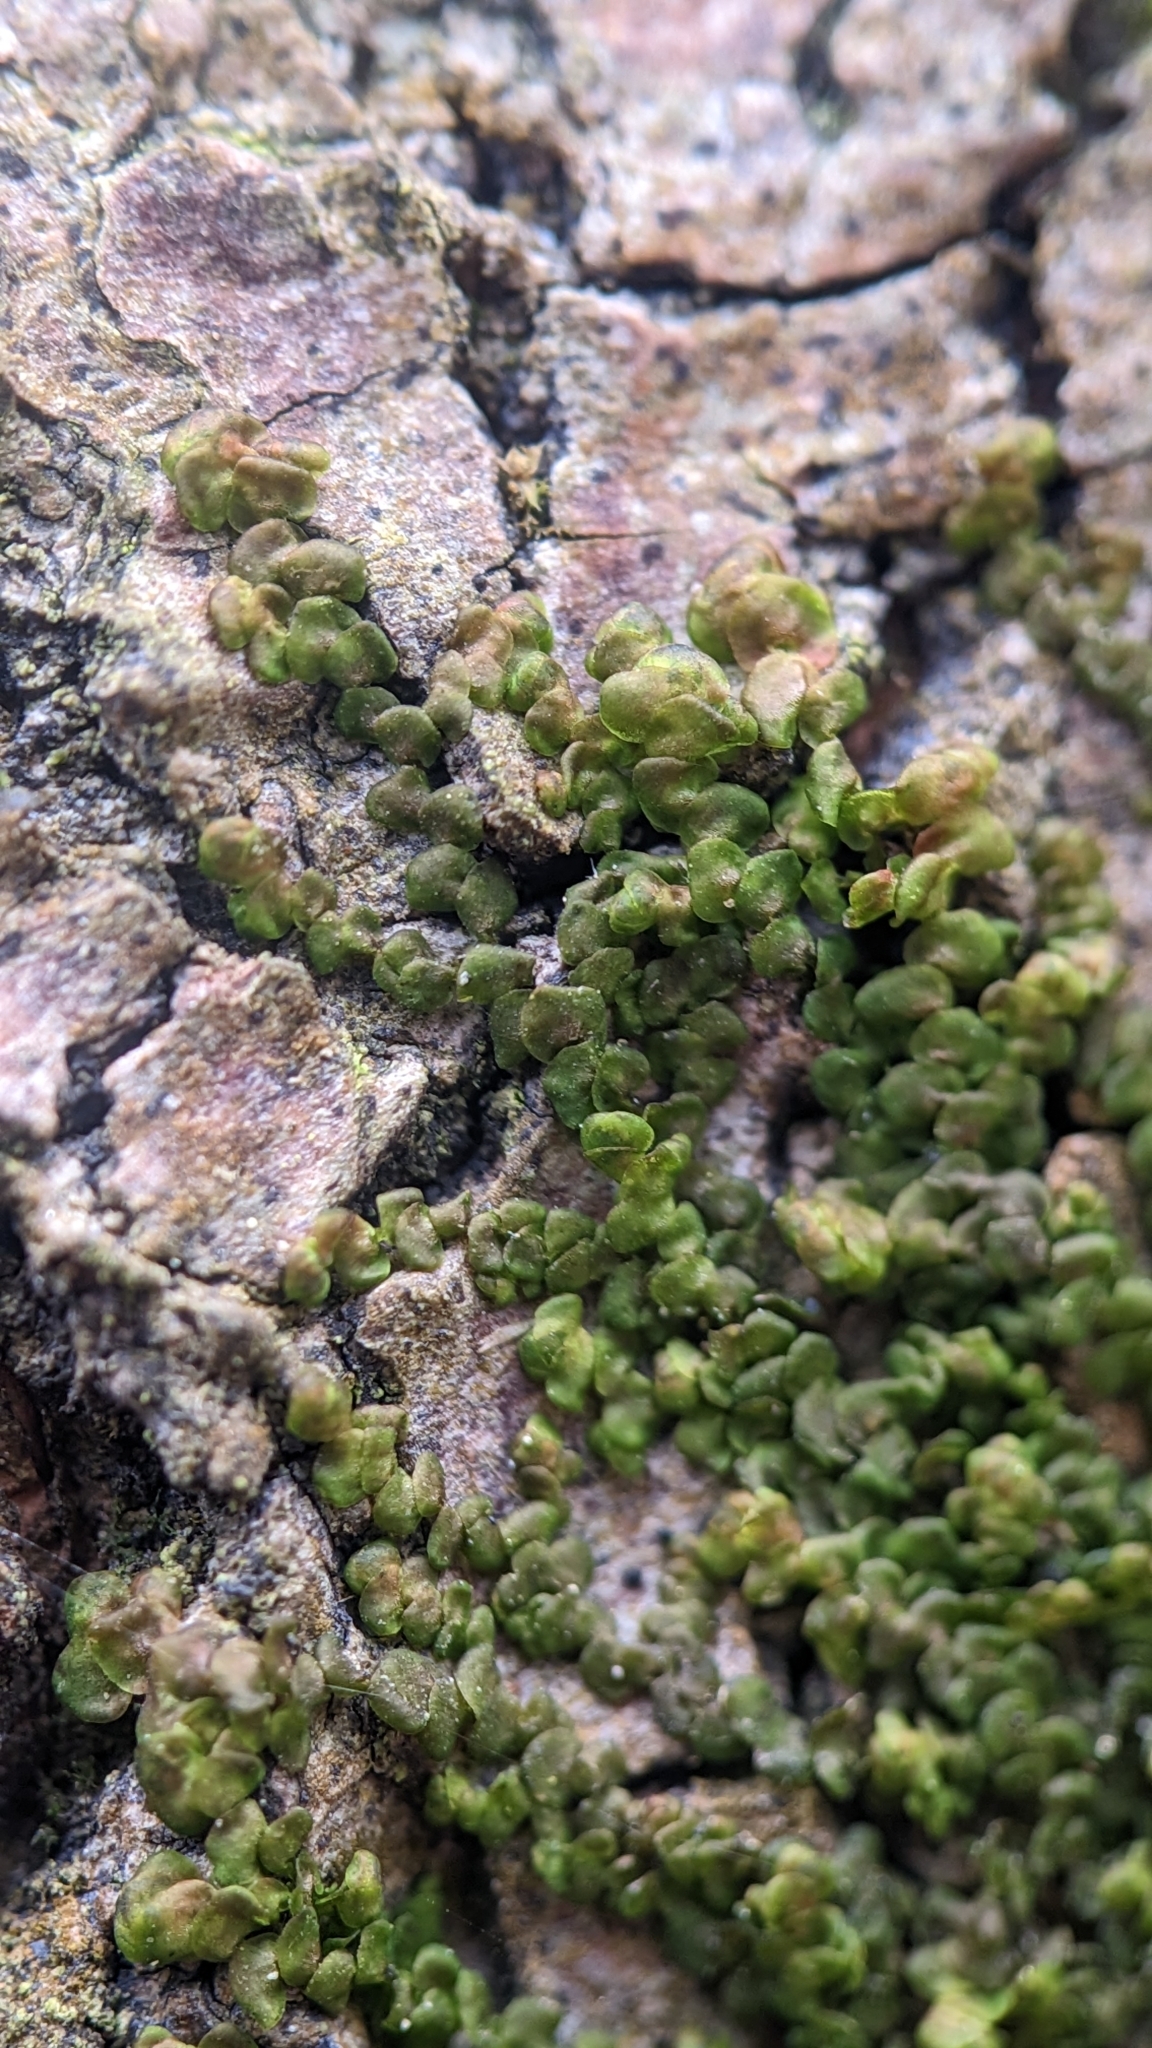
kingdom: Plantae
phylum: Marchantiophyta
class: Jungermanniopsida
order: Porellales
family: Frullaniaceae
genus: Frullania
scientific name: Frullania dilatata
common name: Dilated scalewort
